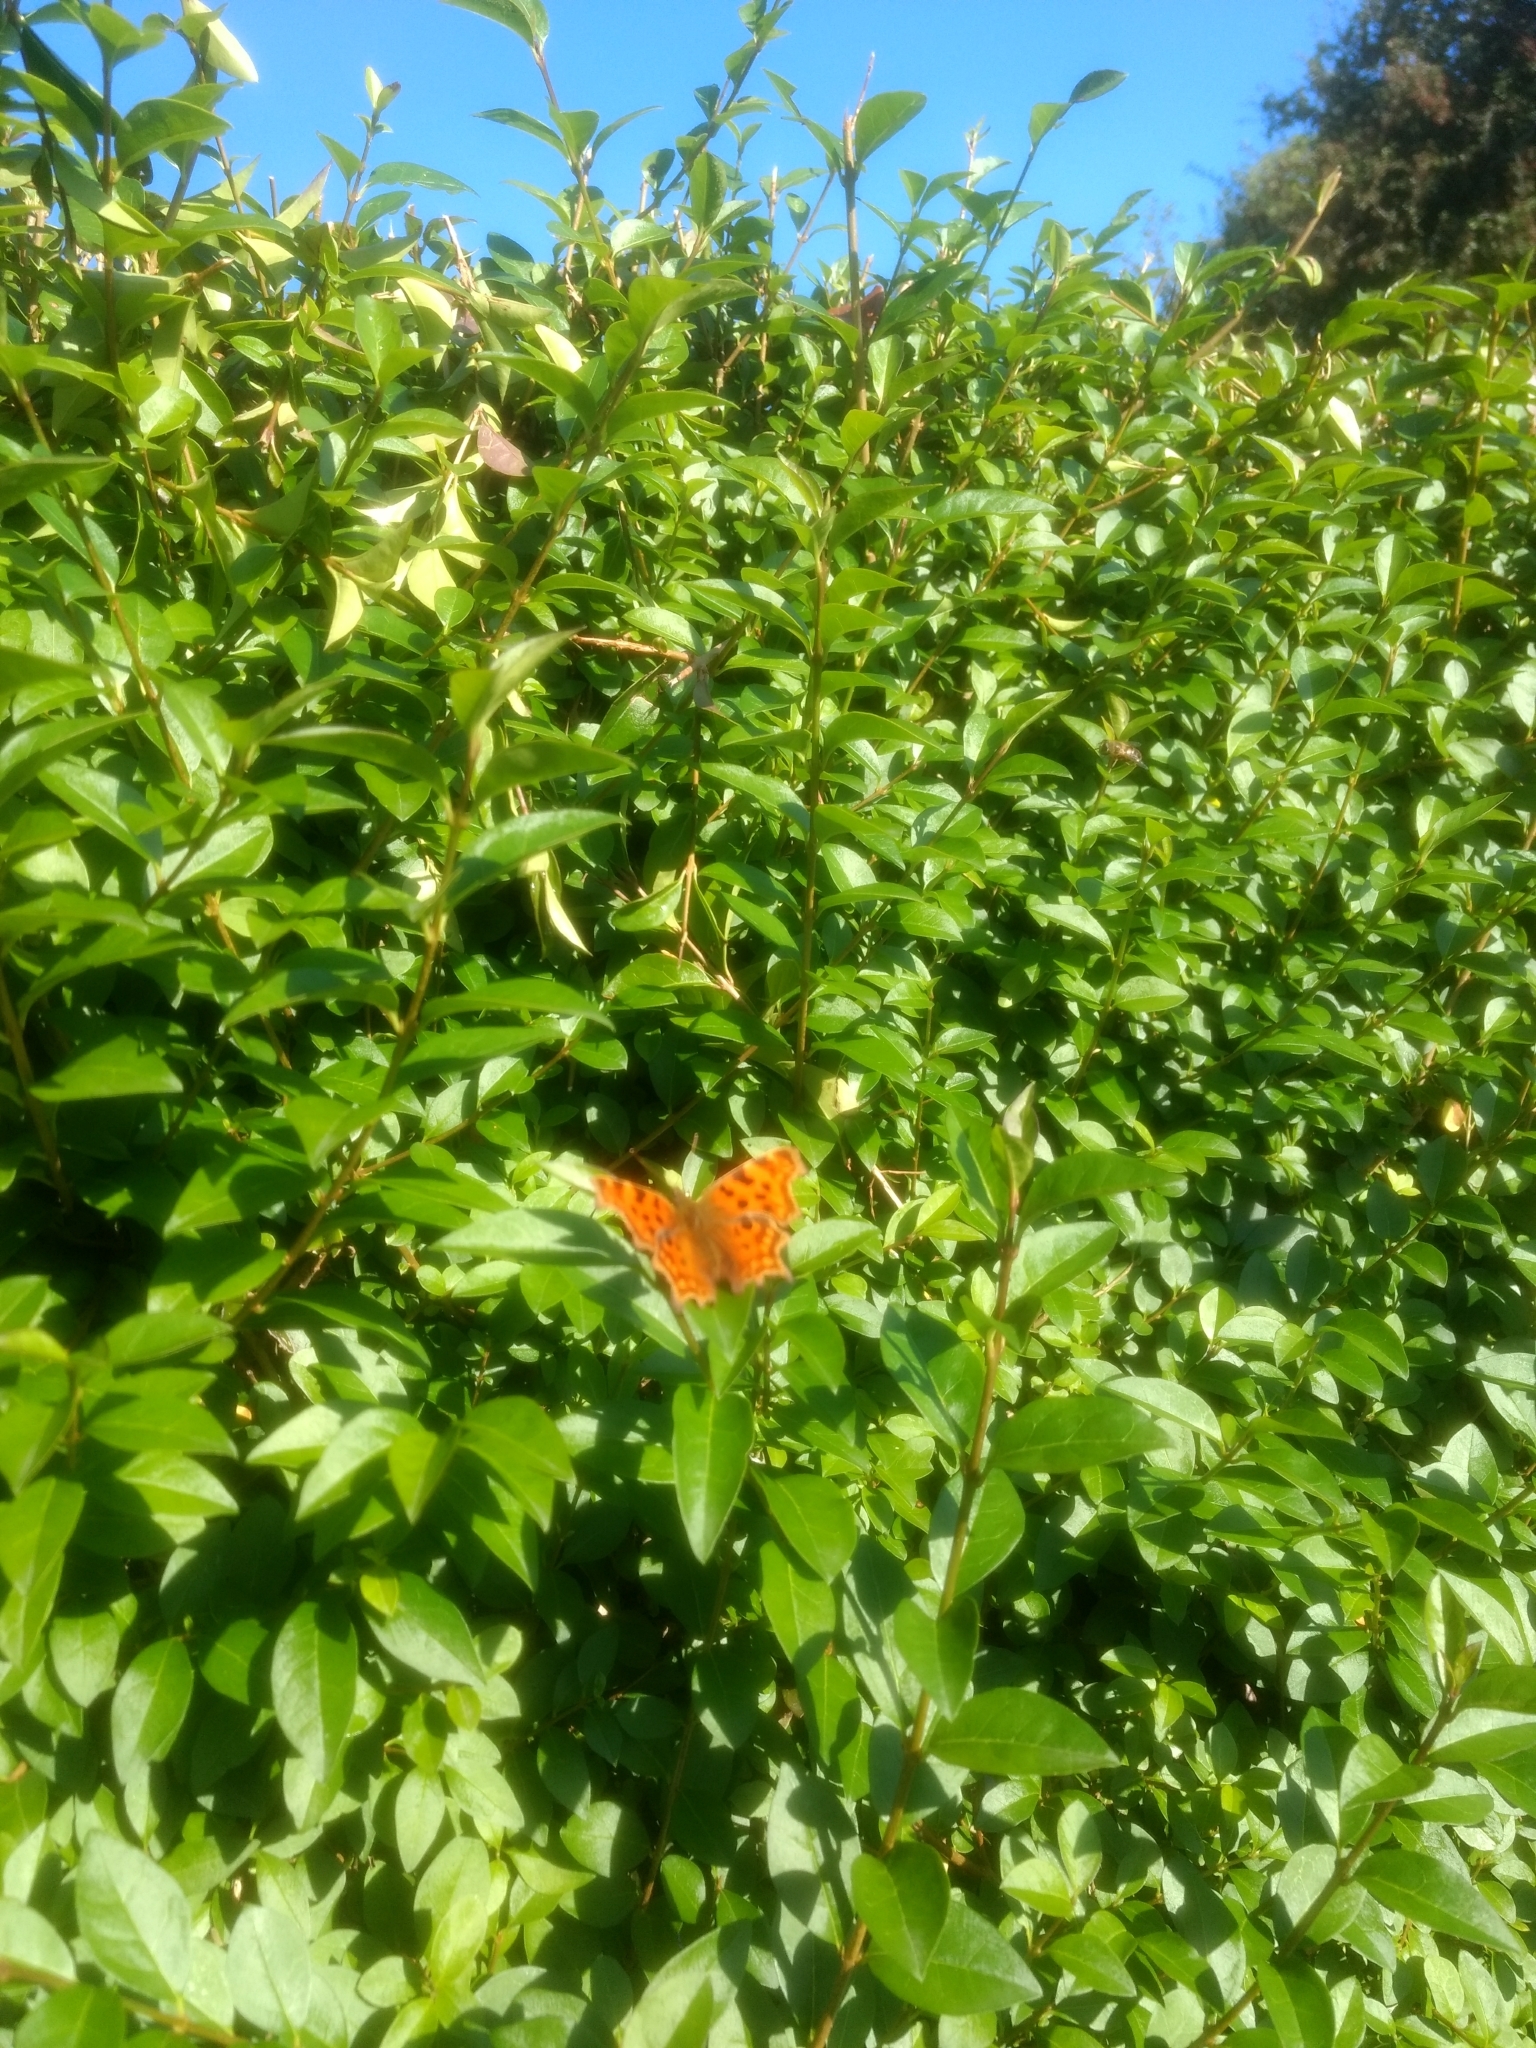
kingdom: Animalia
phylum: Arthropoda
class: Insecta
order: Lepidoptera
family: Nymphalidae
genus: Polygonia
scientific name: Polygonia c-album
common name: Comma
